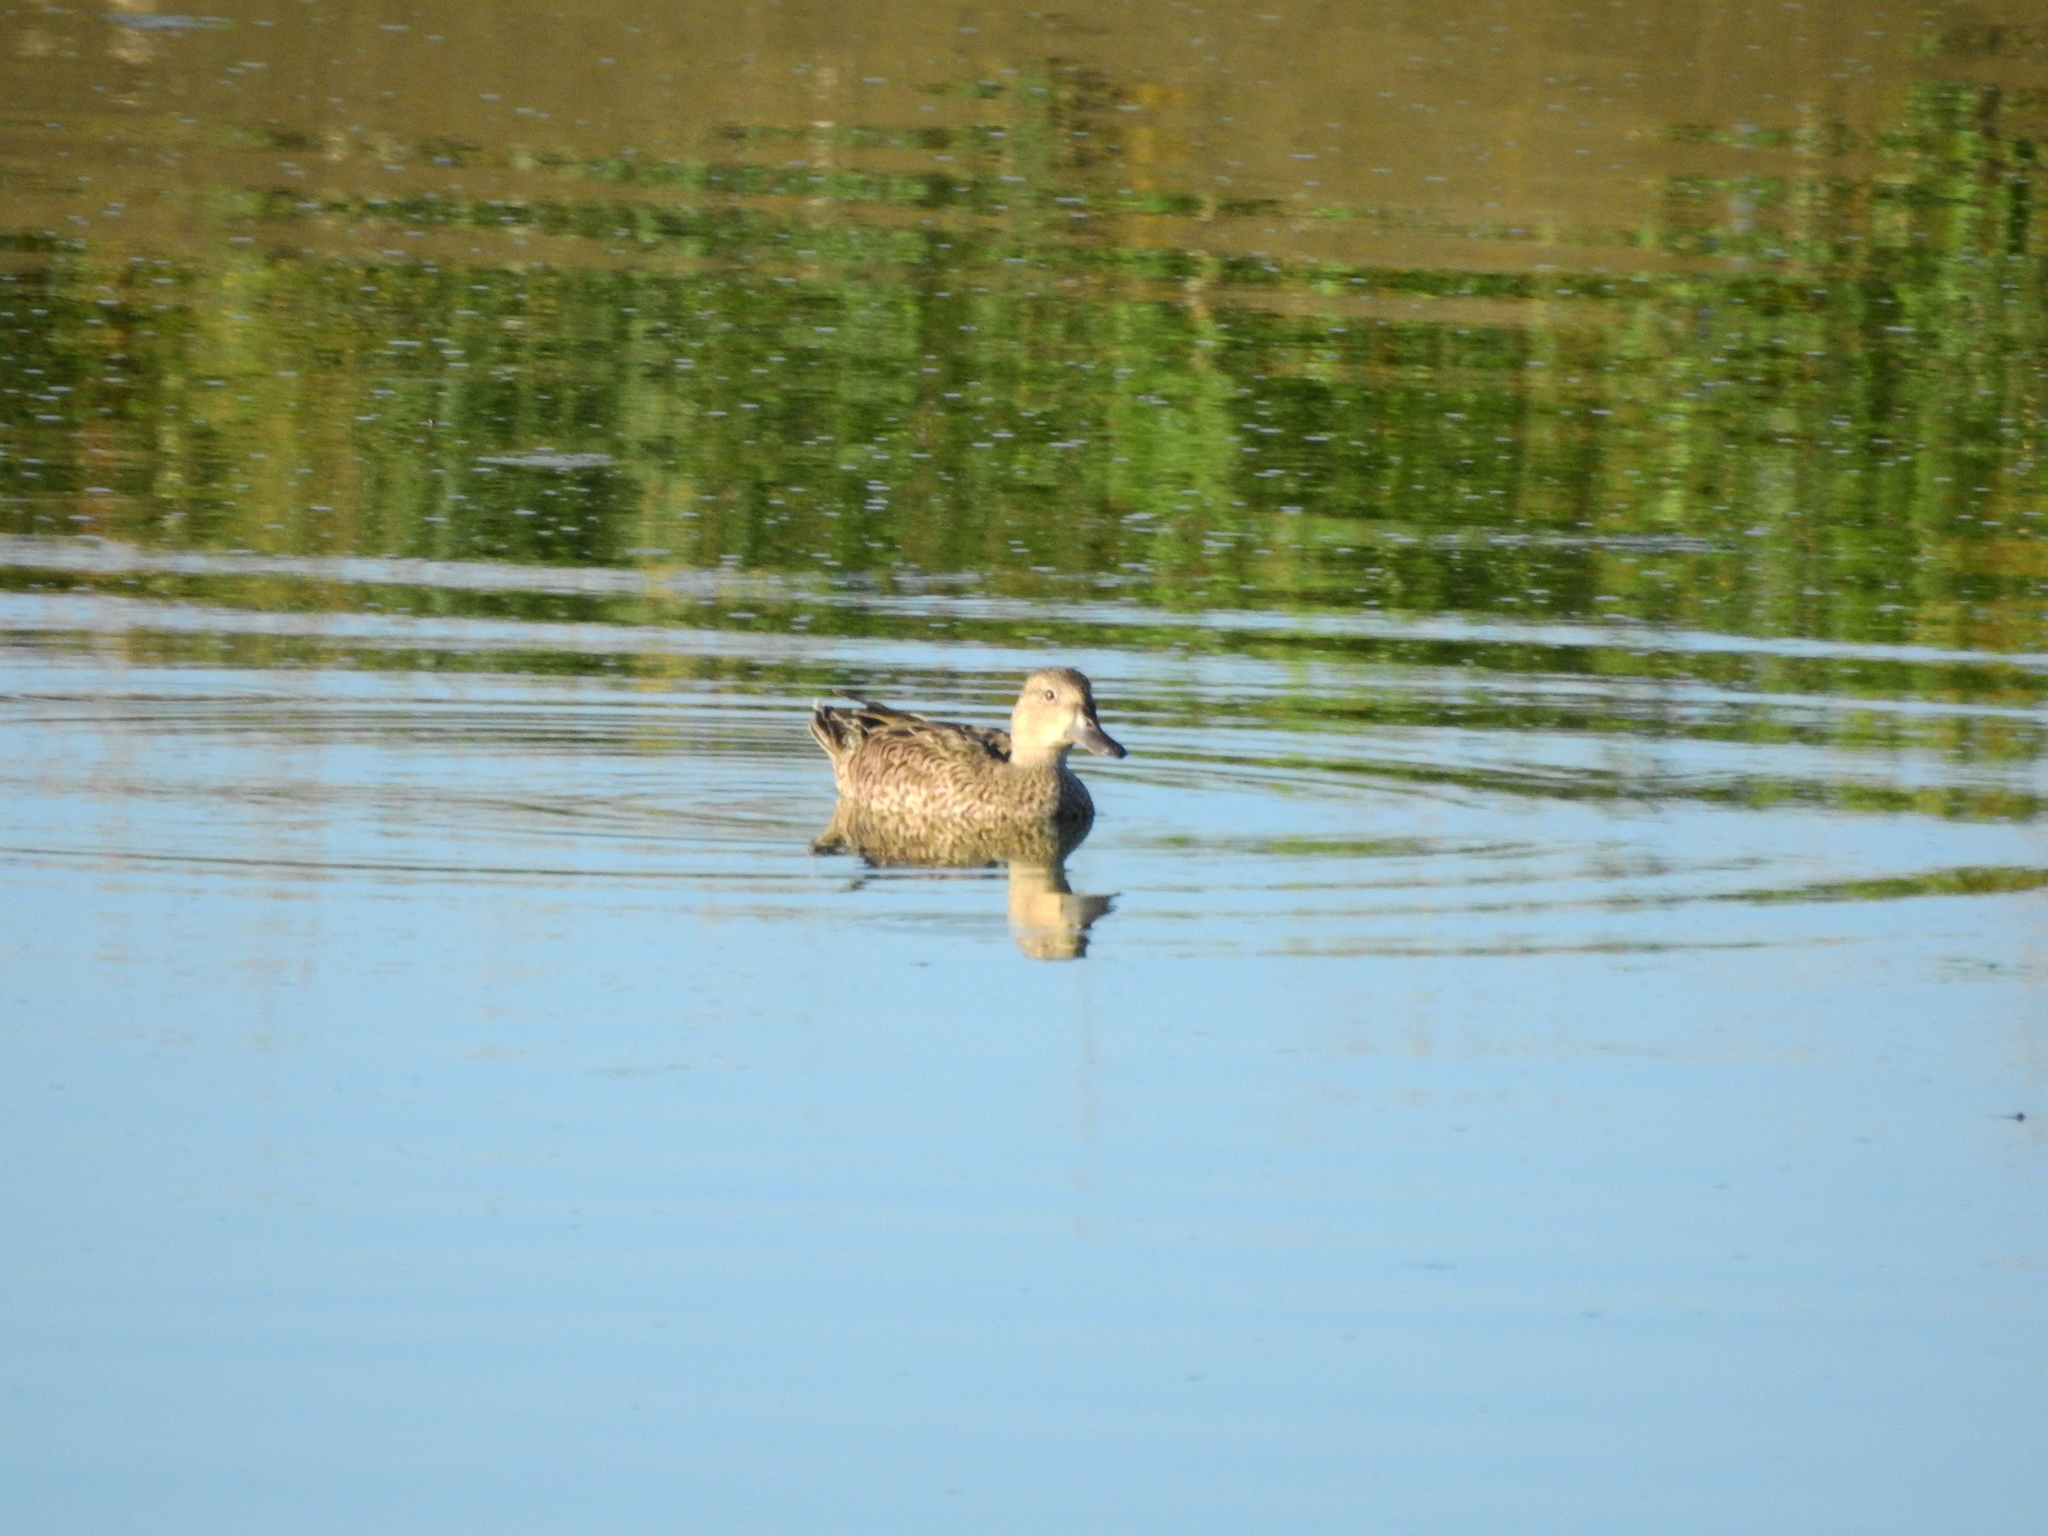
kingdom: Animalia
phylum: Chordata
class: Aves
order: Anseriformes
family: Anatidae
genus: Spatula
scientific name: Spatula discors
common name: Blue-winged teal
